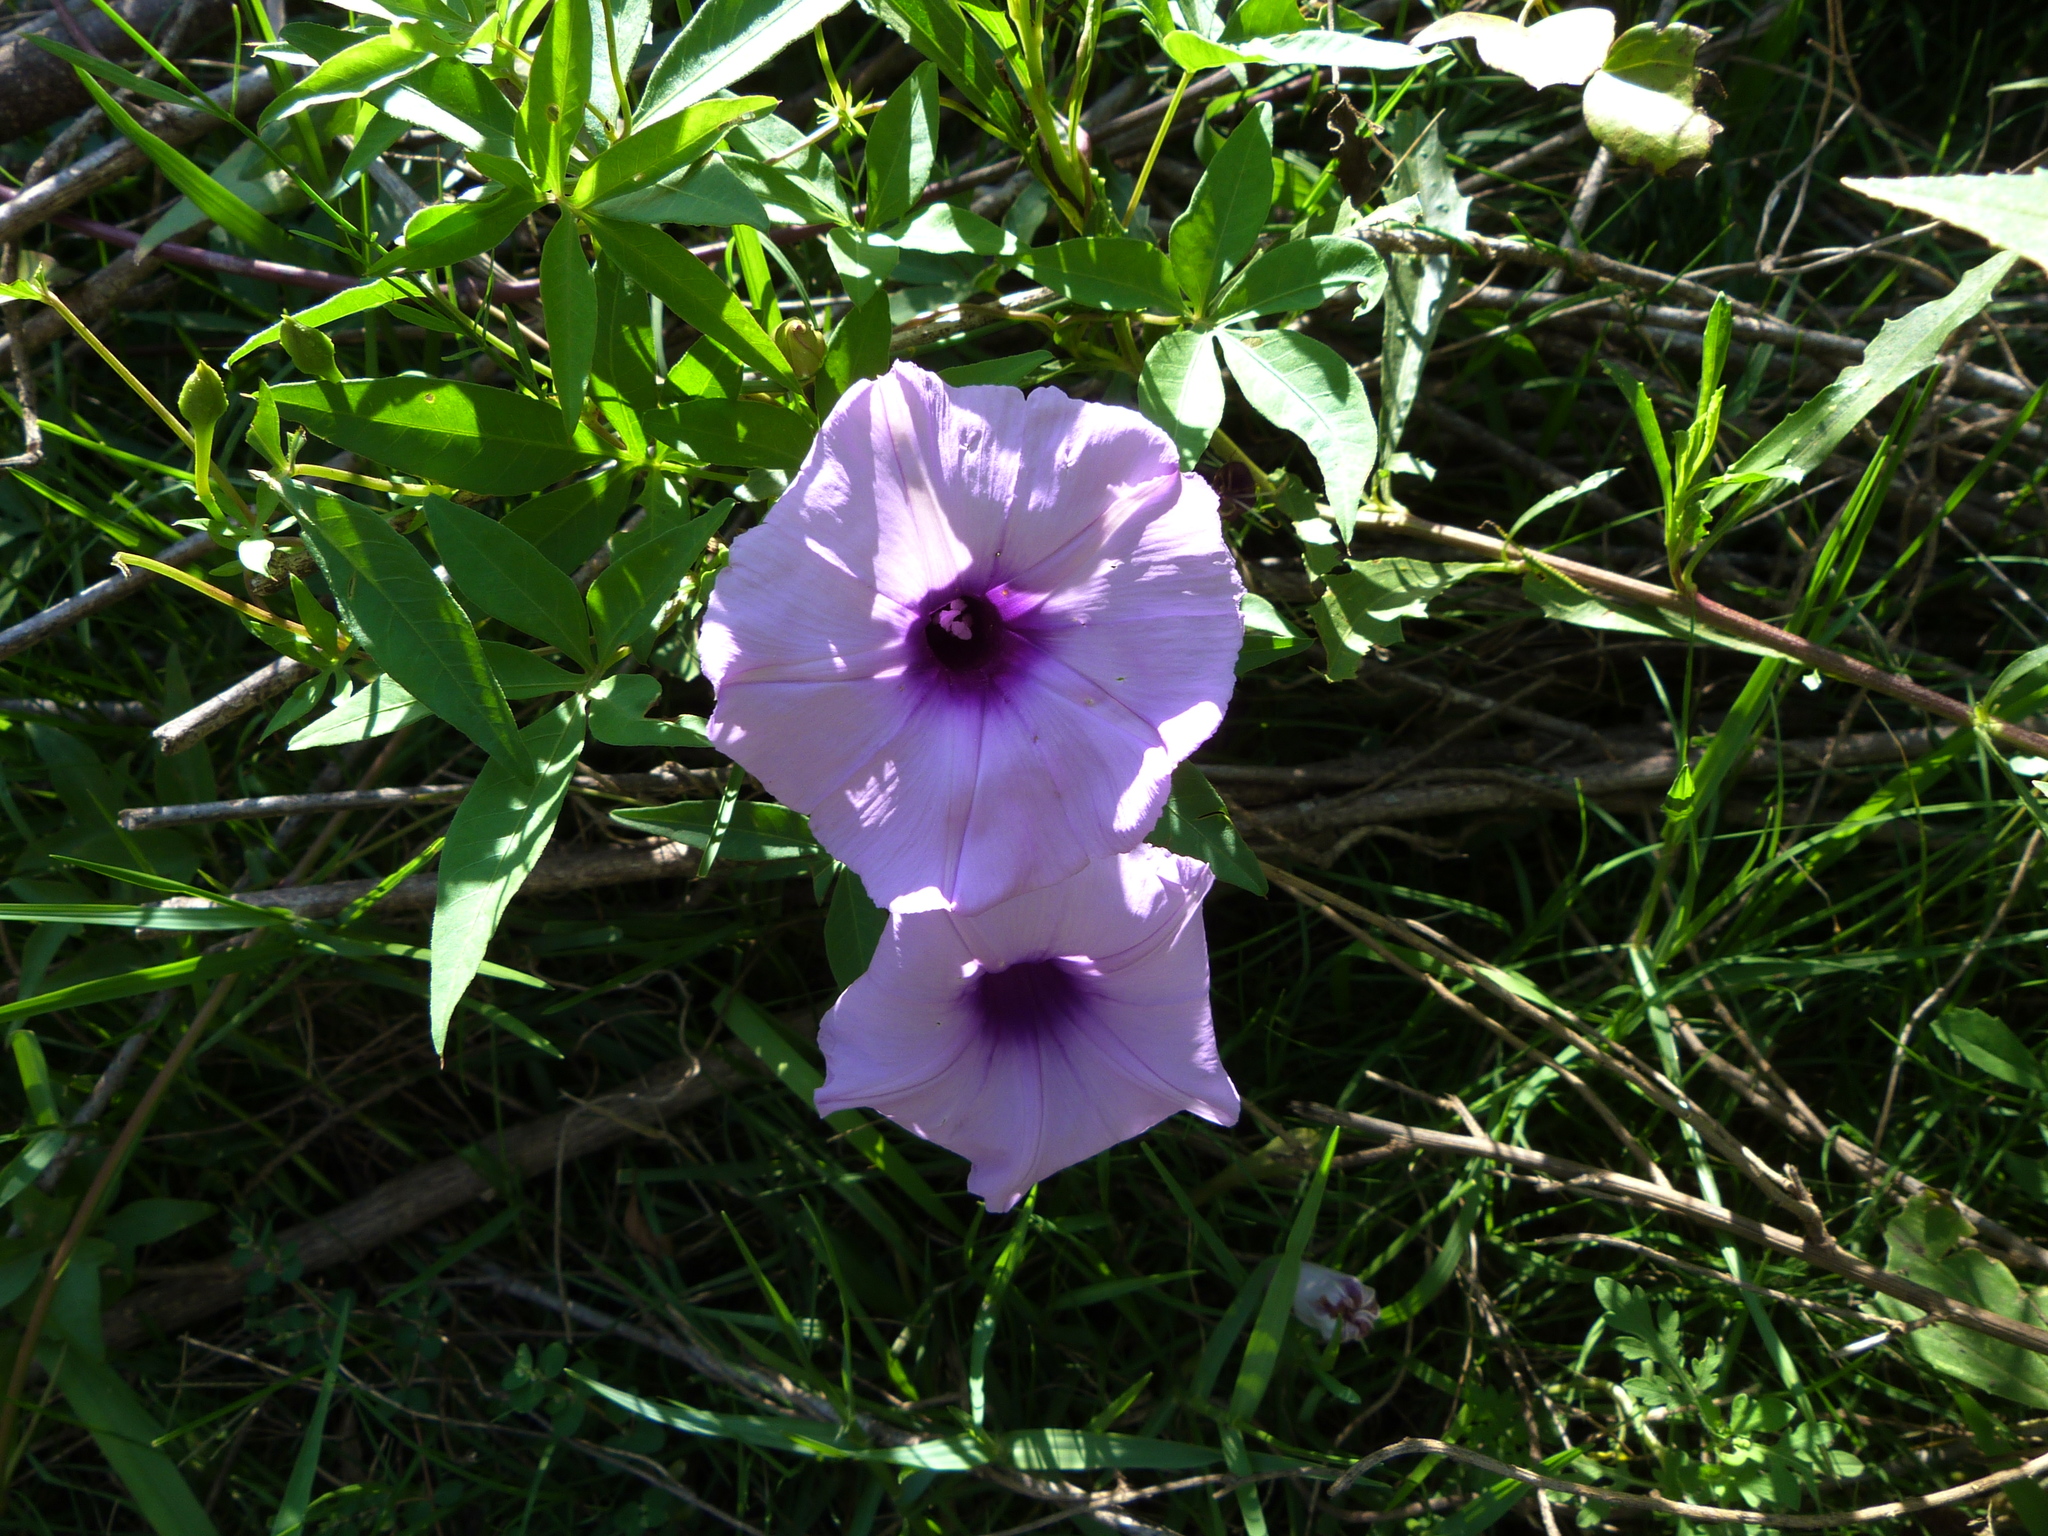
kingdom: Plantae
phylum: Tracheophyta
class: Magnoliopsida
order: Solanales
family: Convolvulaceae
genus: Ipomoea
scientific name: Ipomoea cairica
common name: Mile a minute vine
